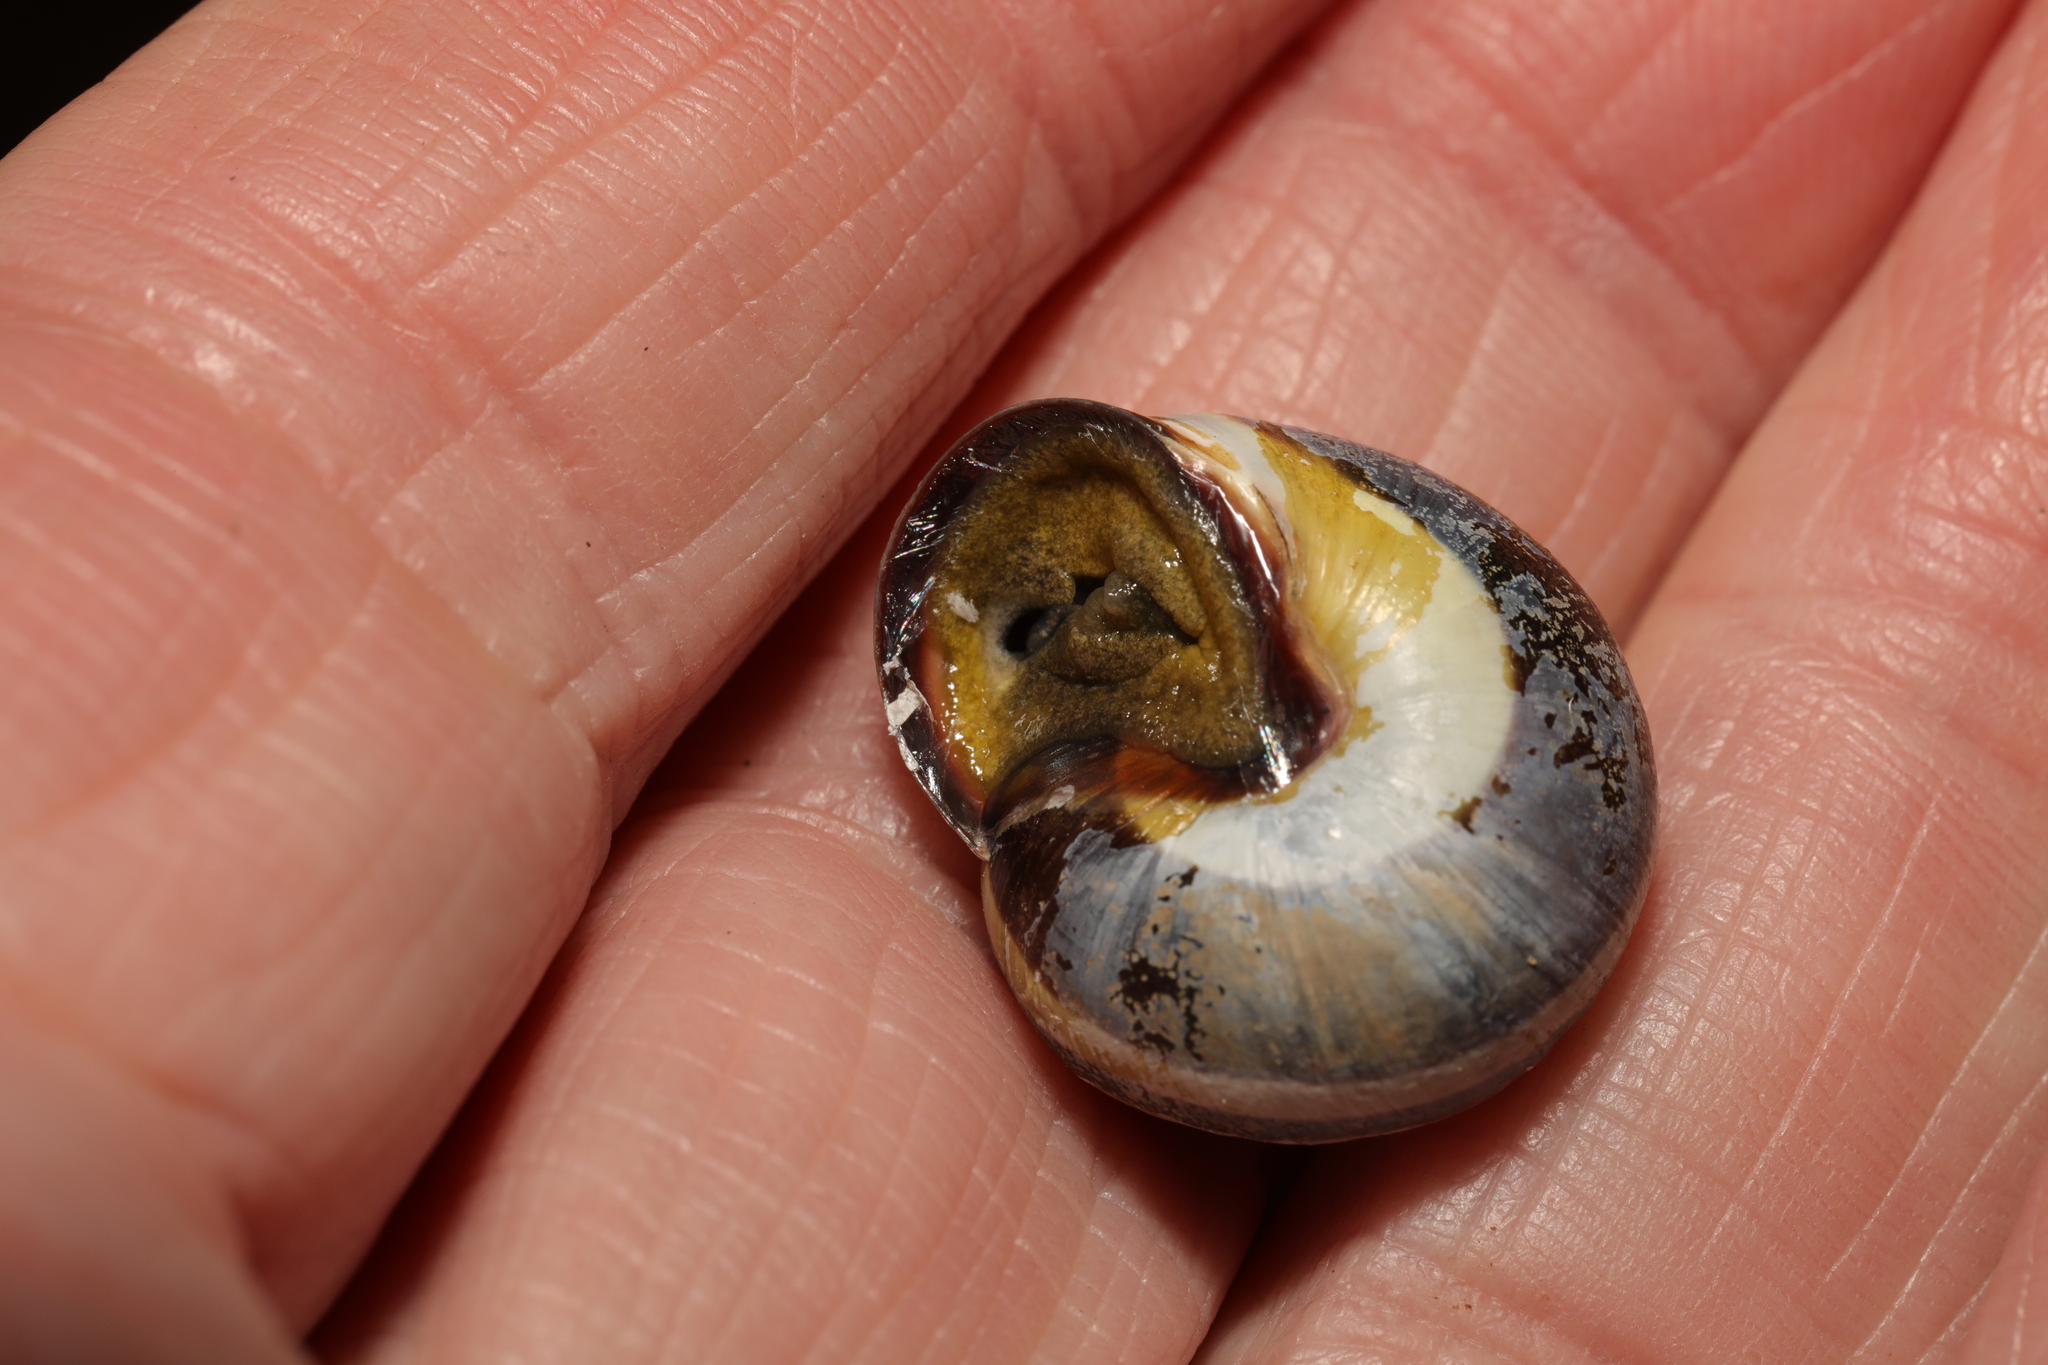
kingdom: Animalia
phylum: Mollusca
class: Gastropoda
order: Stylommatophora
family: Helicidae
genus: Cepaea
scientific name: Cepaea nemoralis
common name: Grovesnail
